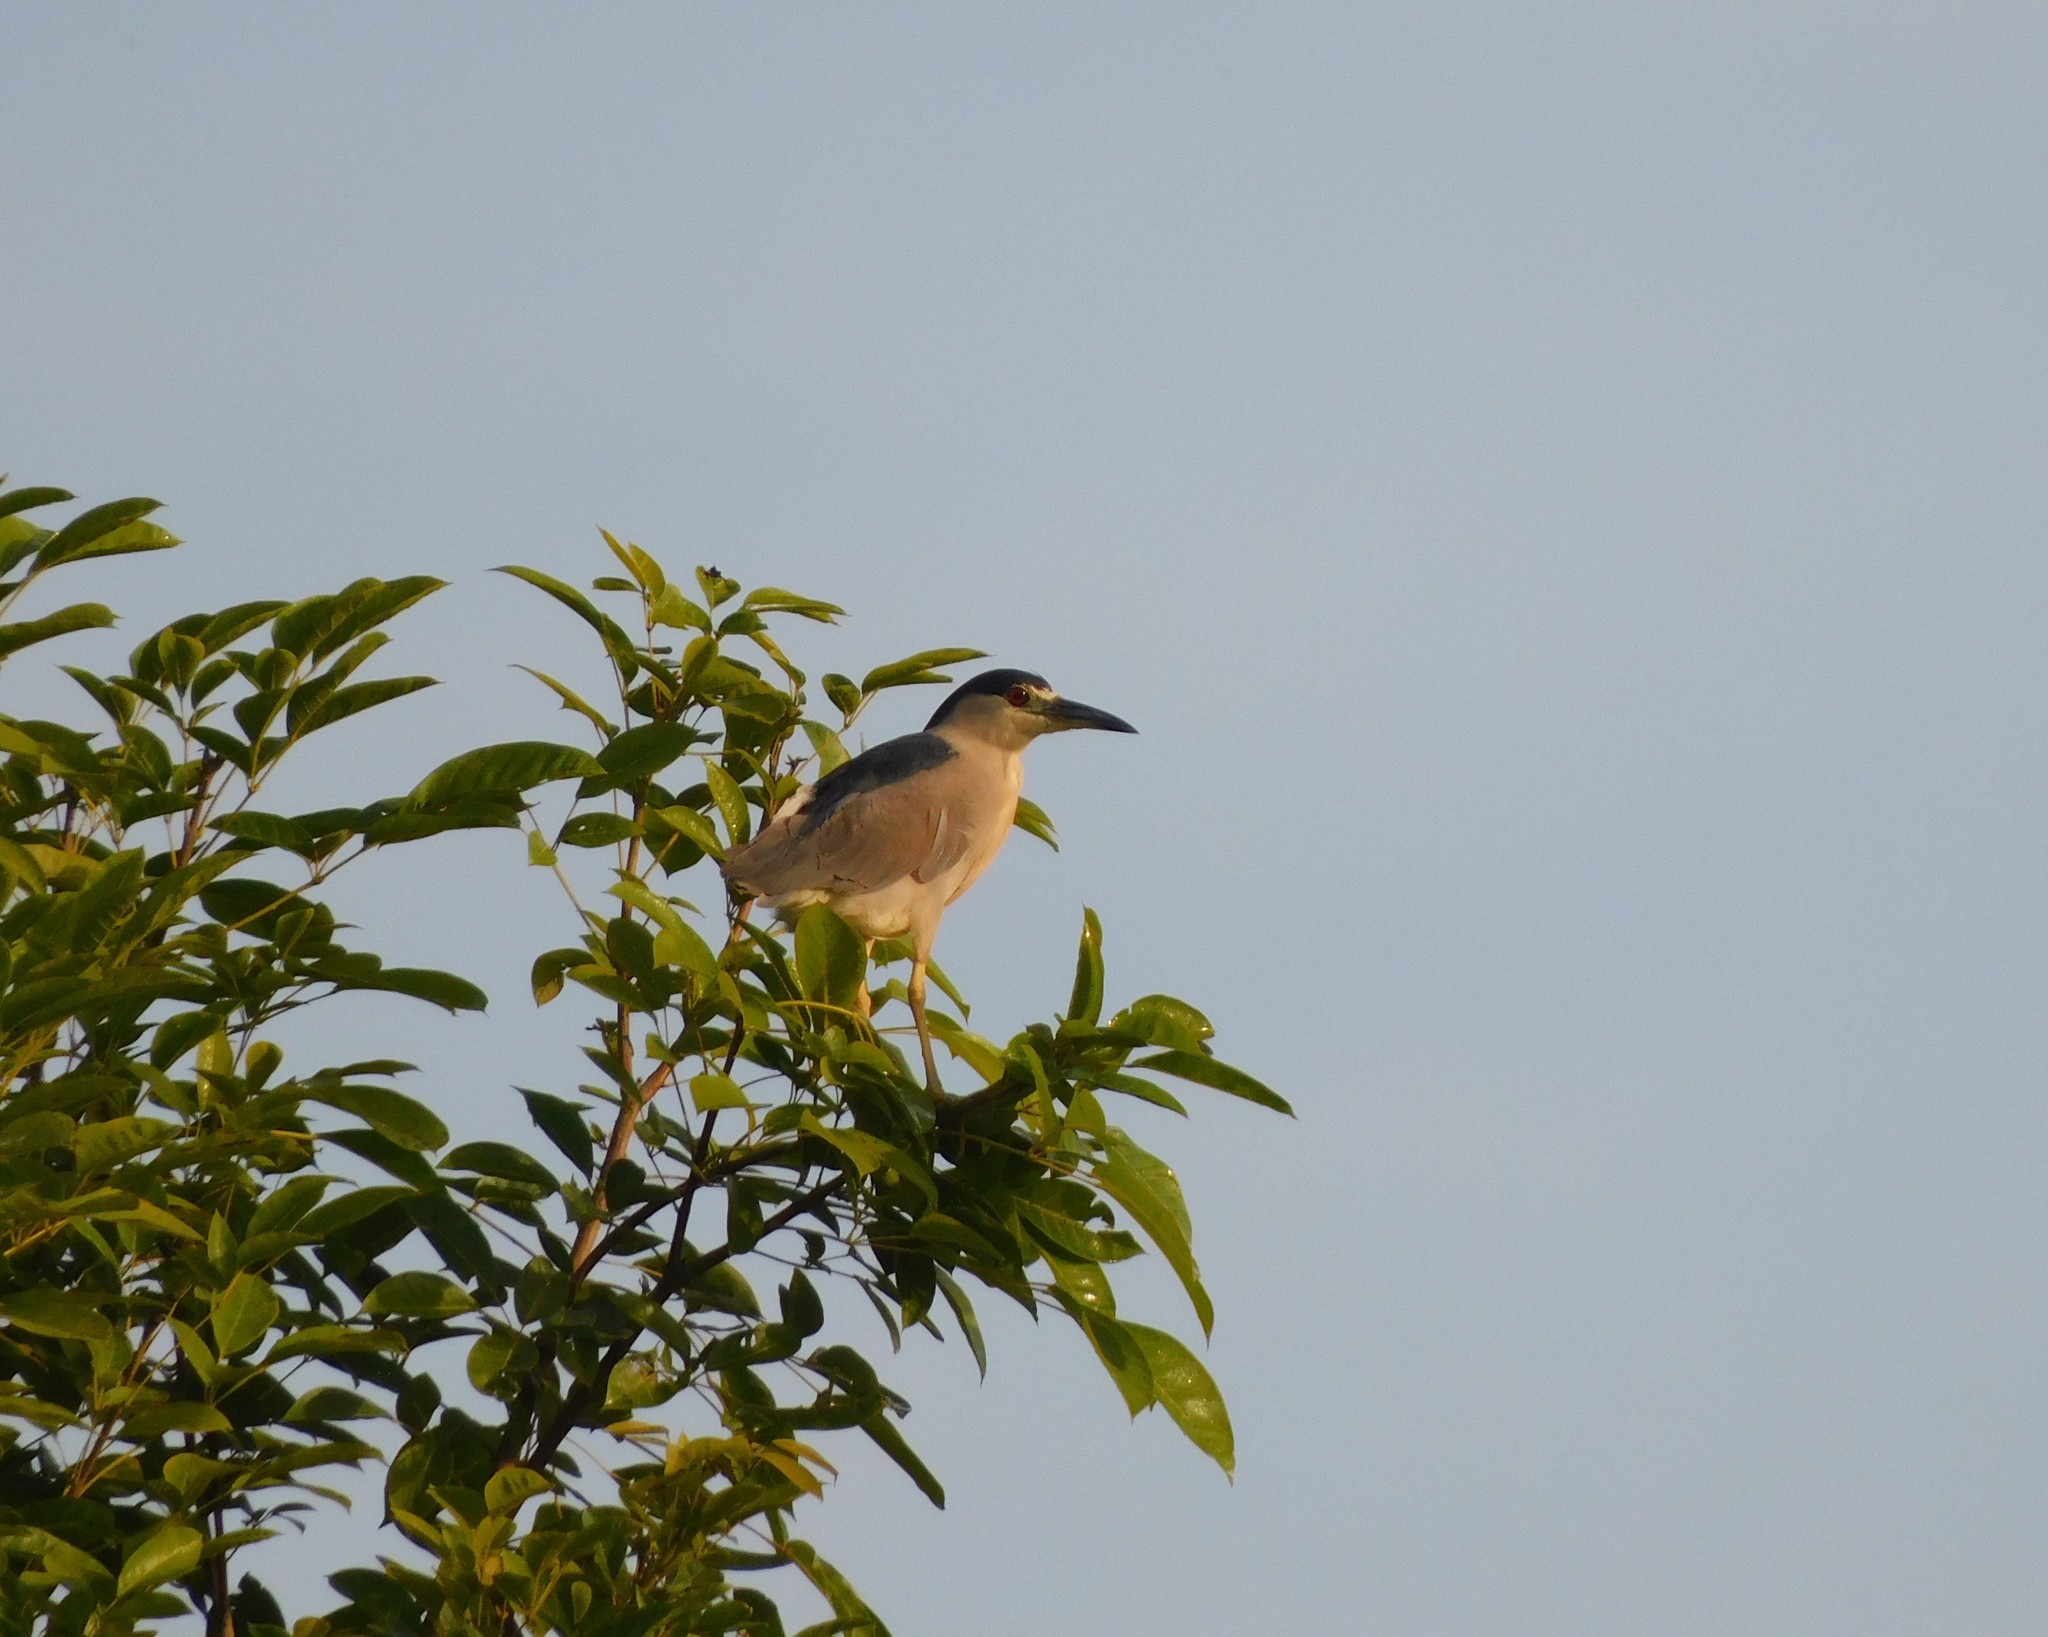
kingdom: Animalia
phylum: Chordata
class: Aves
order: Pelecaniformes
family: Ardeidae
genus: Nycticorax
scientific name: Nycticorax nycticorax
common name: Black-crowned night heron
